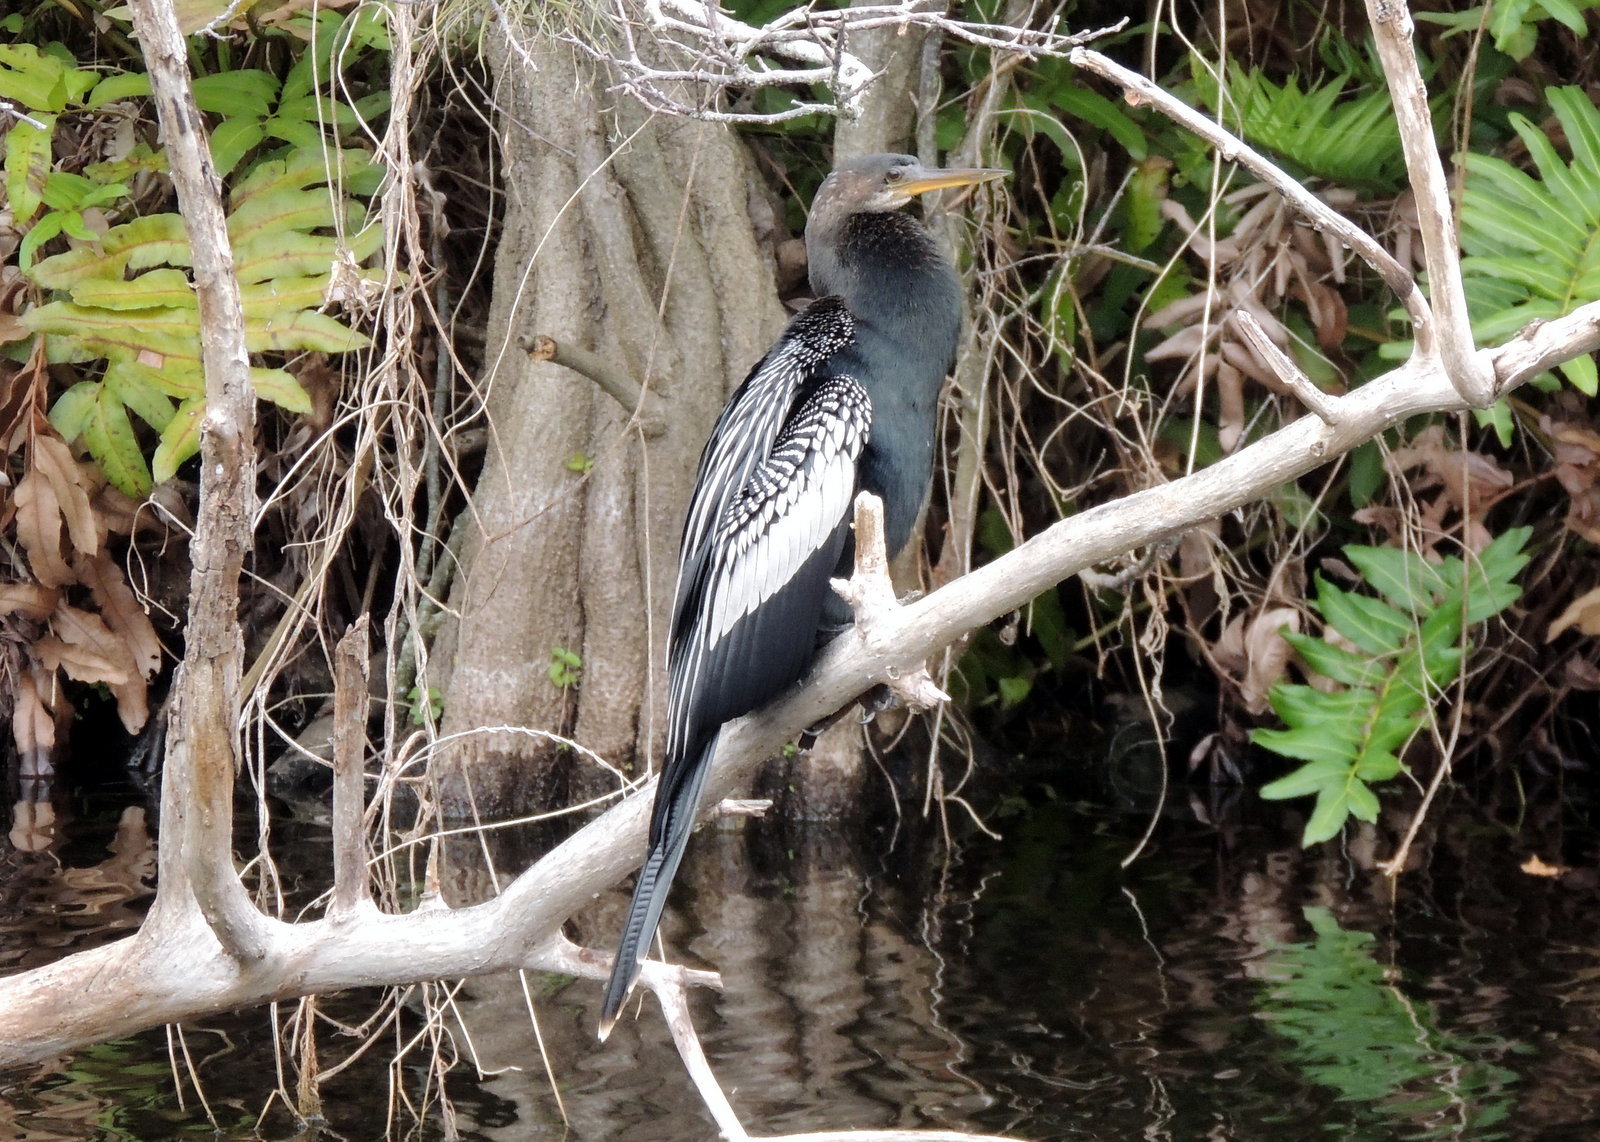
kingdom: Animalia
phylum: Chordata
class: Aves
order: Suliformes
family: Anhingidae
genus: Anhinga
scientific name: Anhinga anhinga
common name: Anhinga
